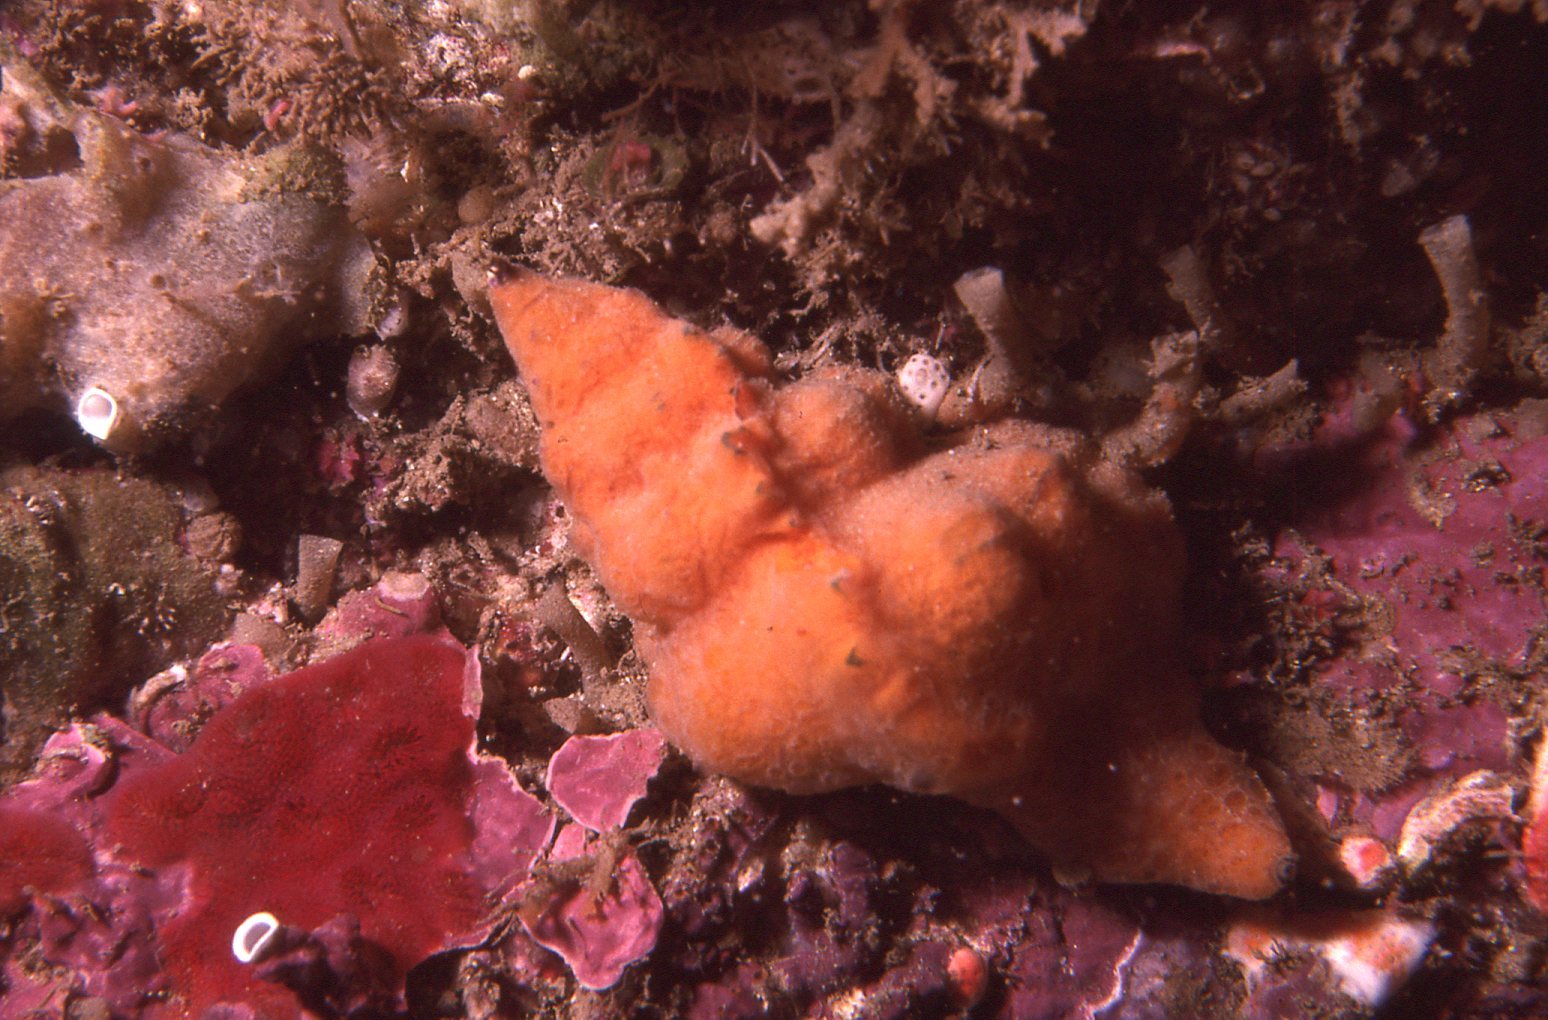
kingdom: Animalia
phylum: Mollusca
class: Gastropoda
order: Neogastropoda
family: Muricidae
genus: Chicoreus
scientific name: Chicoreus denudatus
